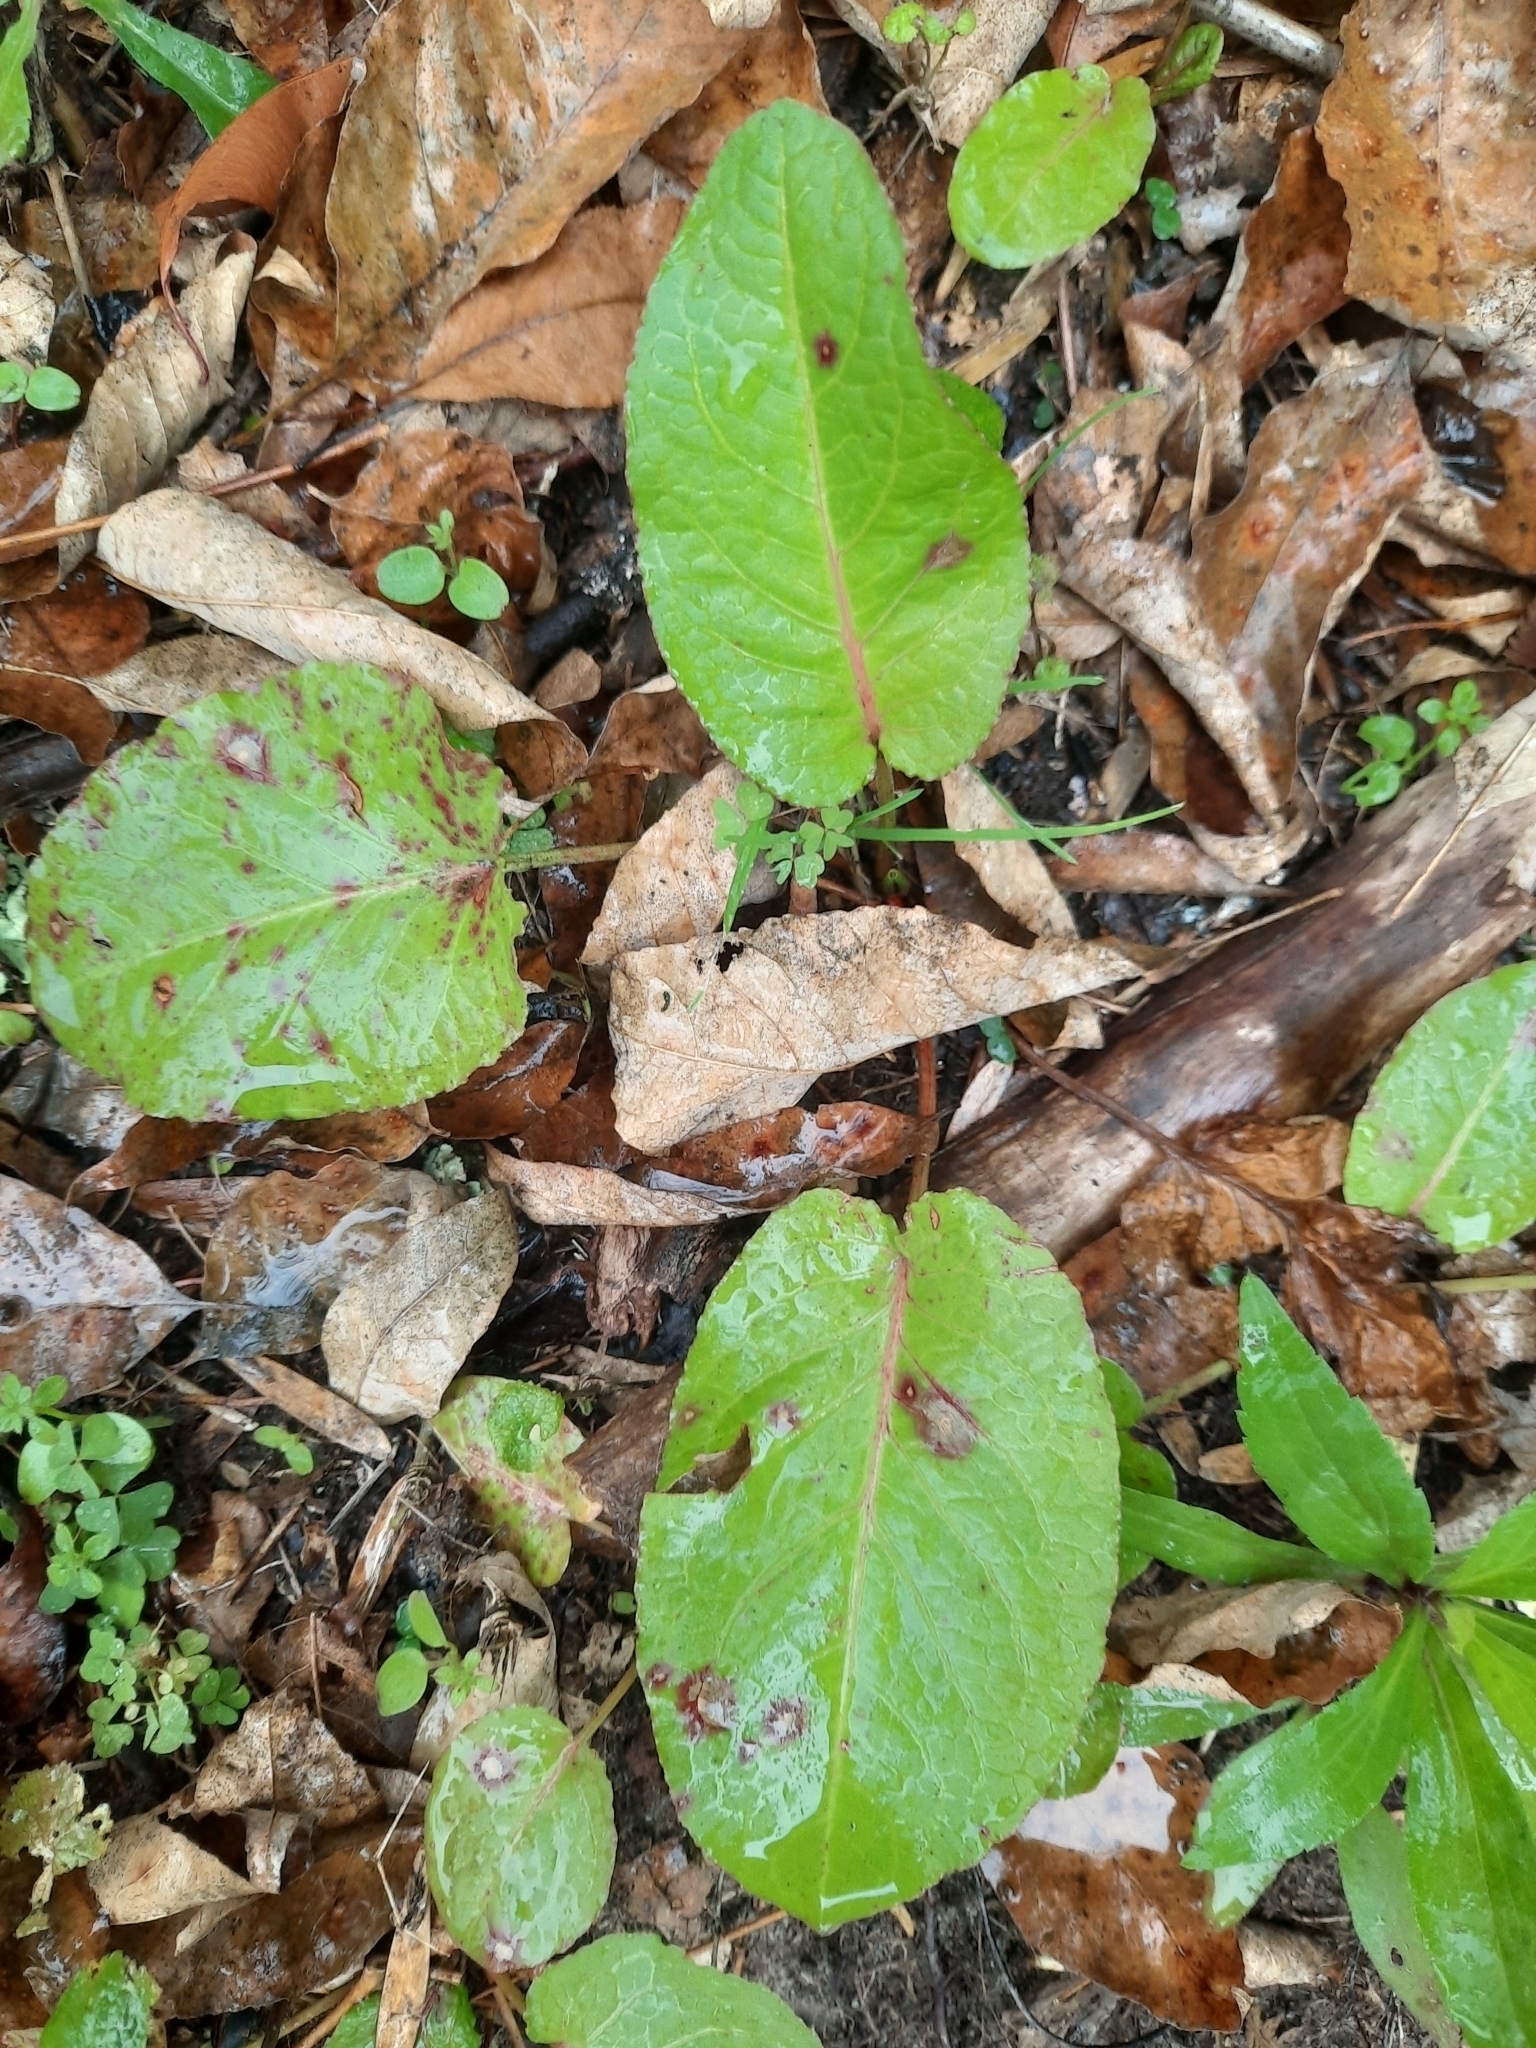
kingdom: Fungi
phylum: Ascomycota
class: Dothideomycetes
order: Mycosphaerellales
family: Mycosphaerellaceae
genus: Ramularia
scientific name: Ramularia rubella
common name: Red dock spot
